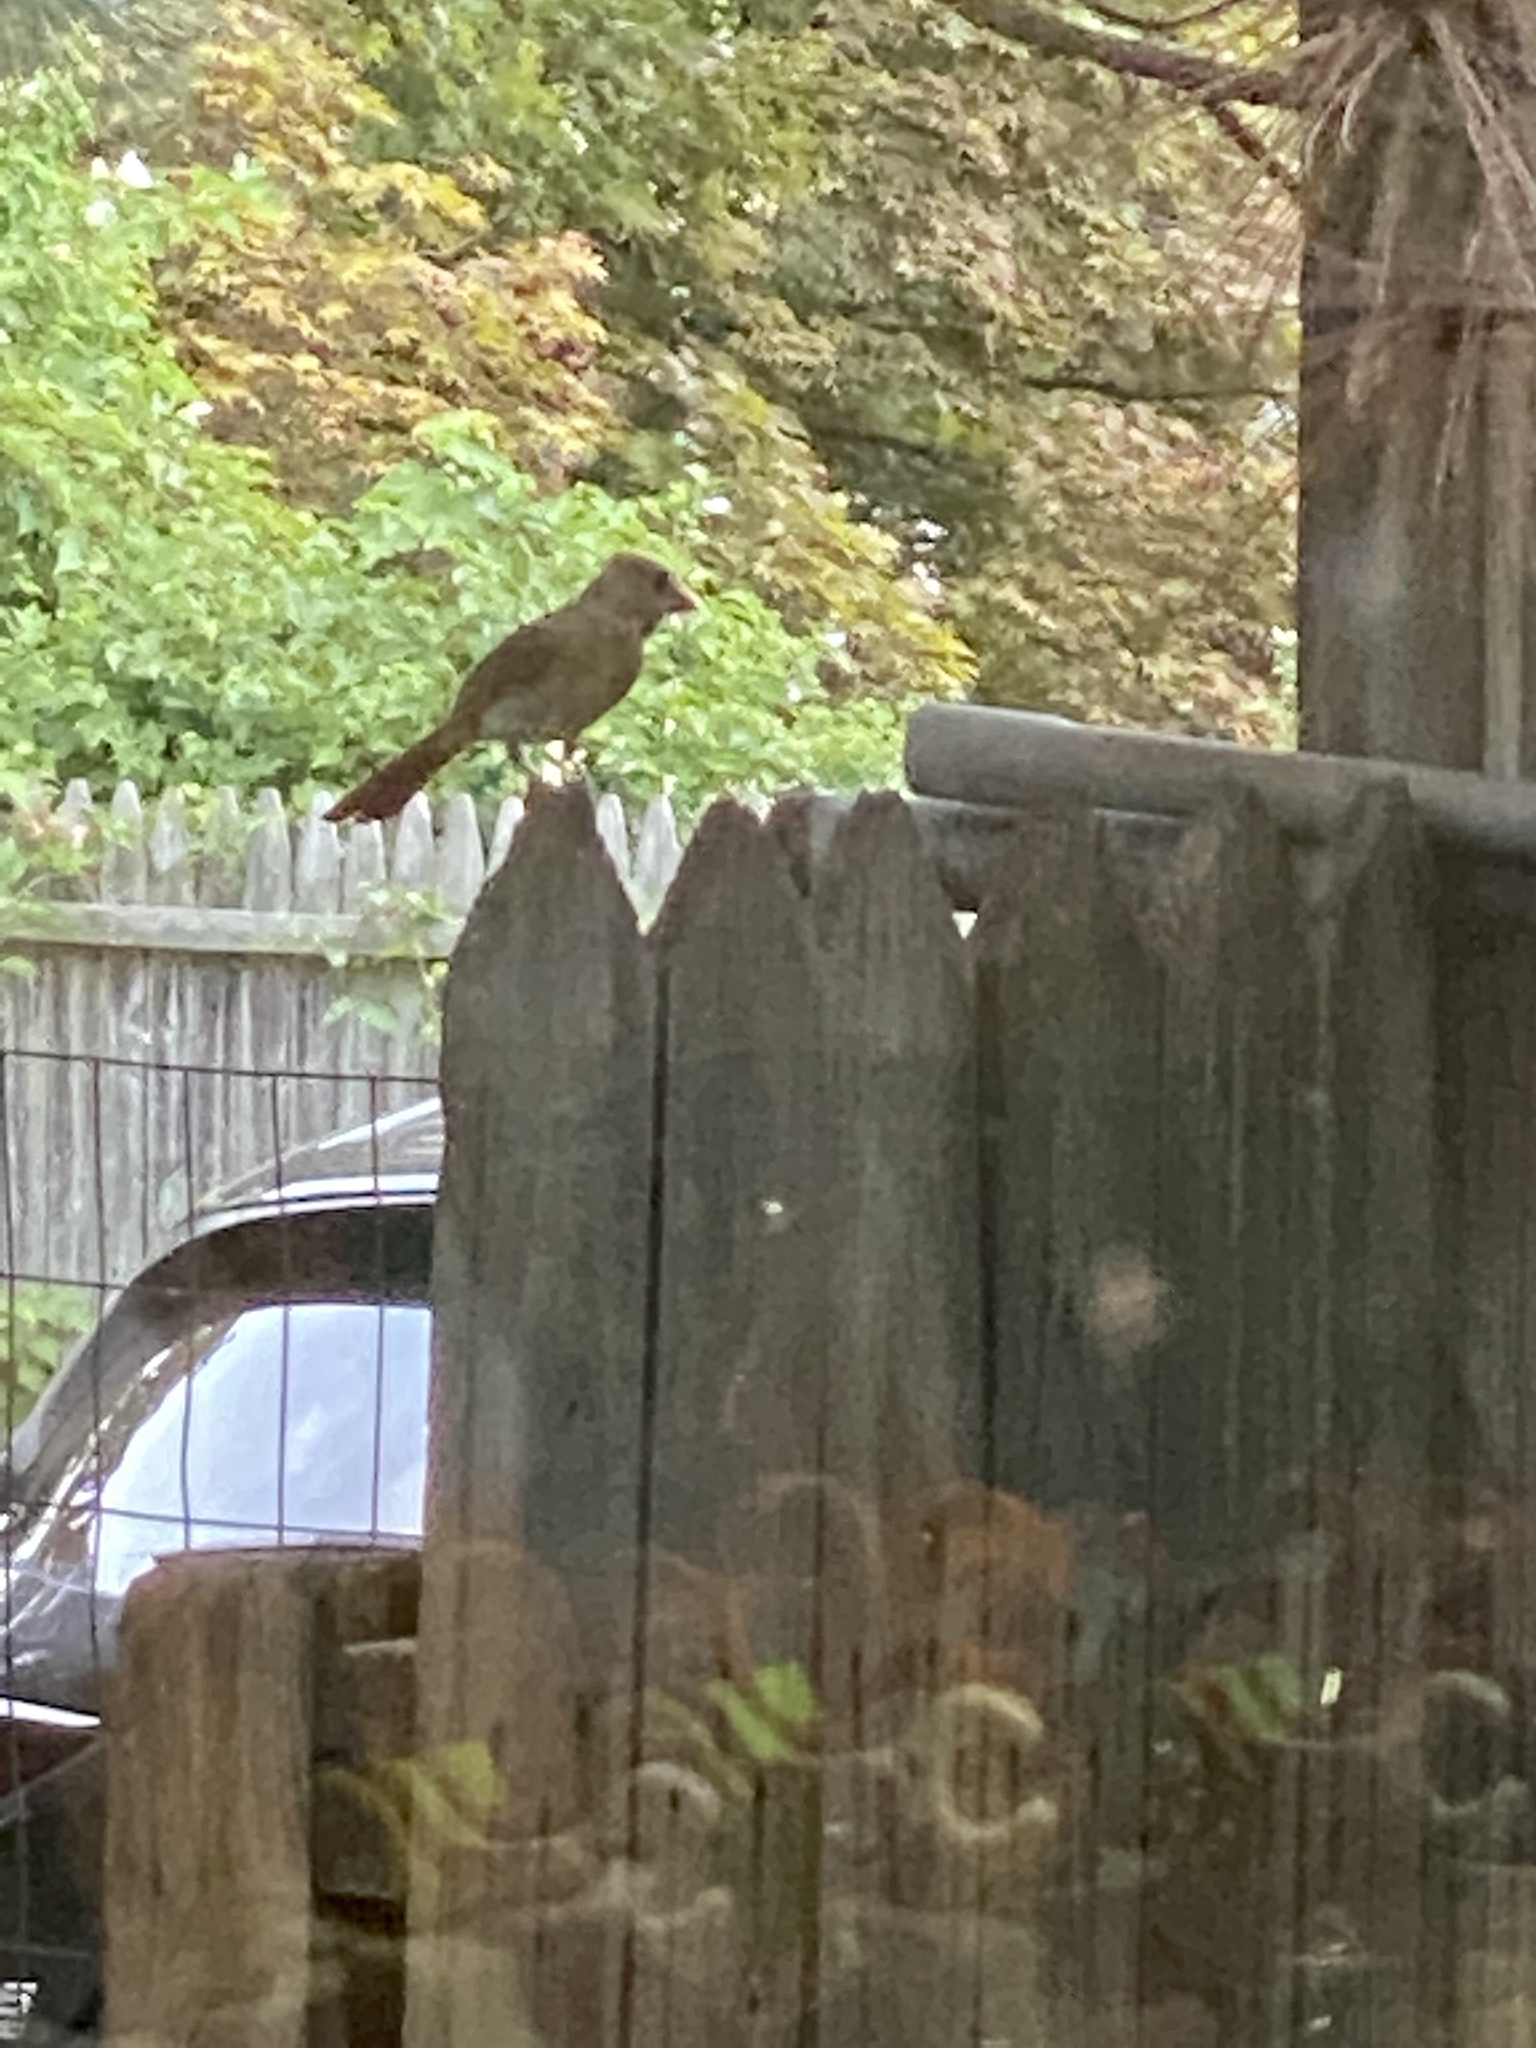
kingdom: Animalia
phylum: Chordata
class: Aves
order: Passeriformes
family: Cardinalidae
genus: Cardinalis
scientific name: Cardinalis cardinalis
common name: Northern cardinal
